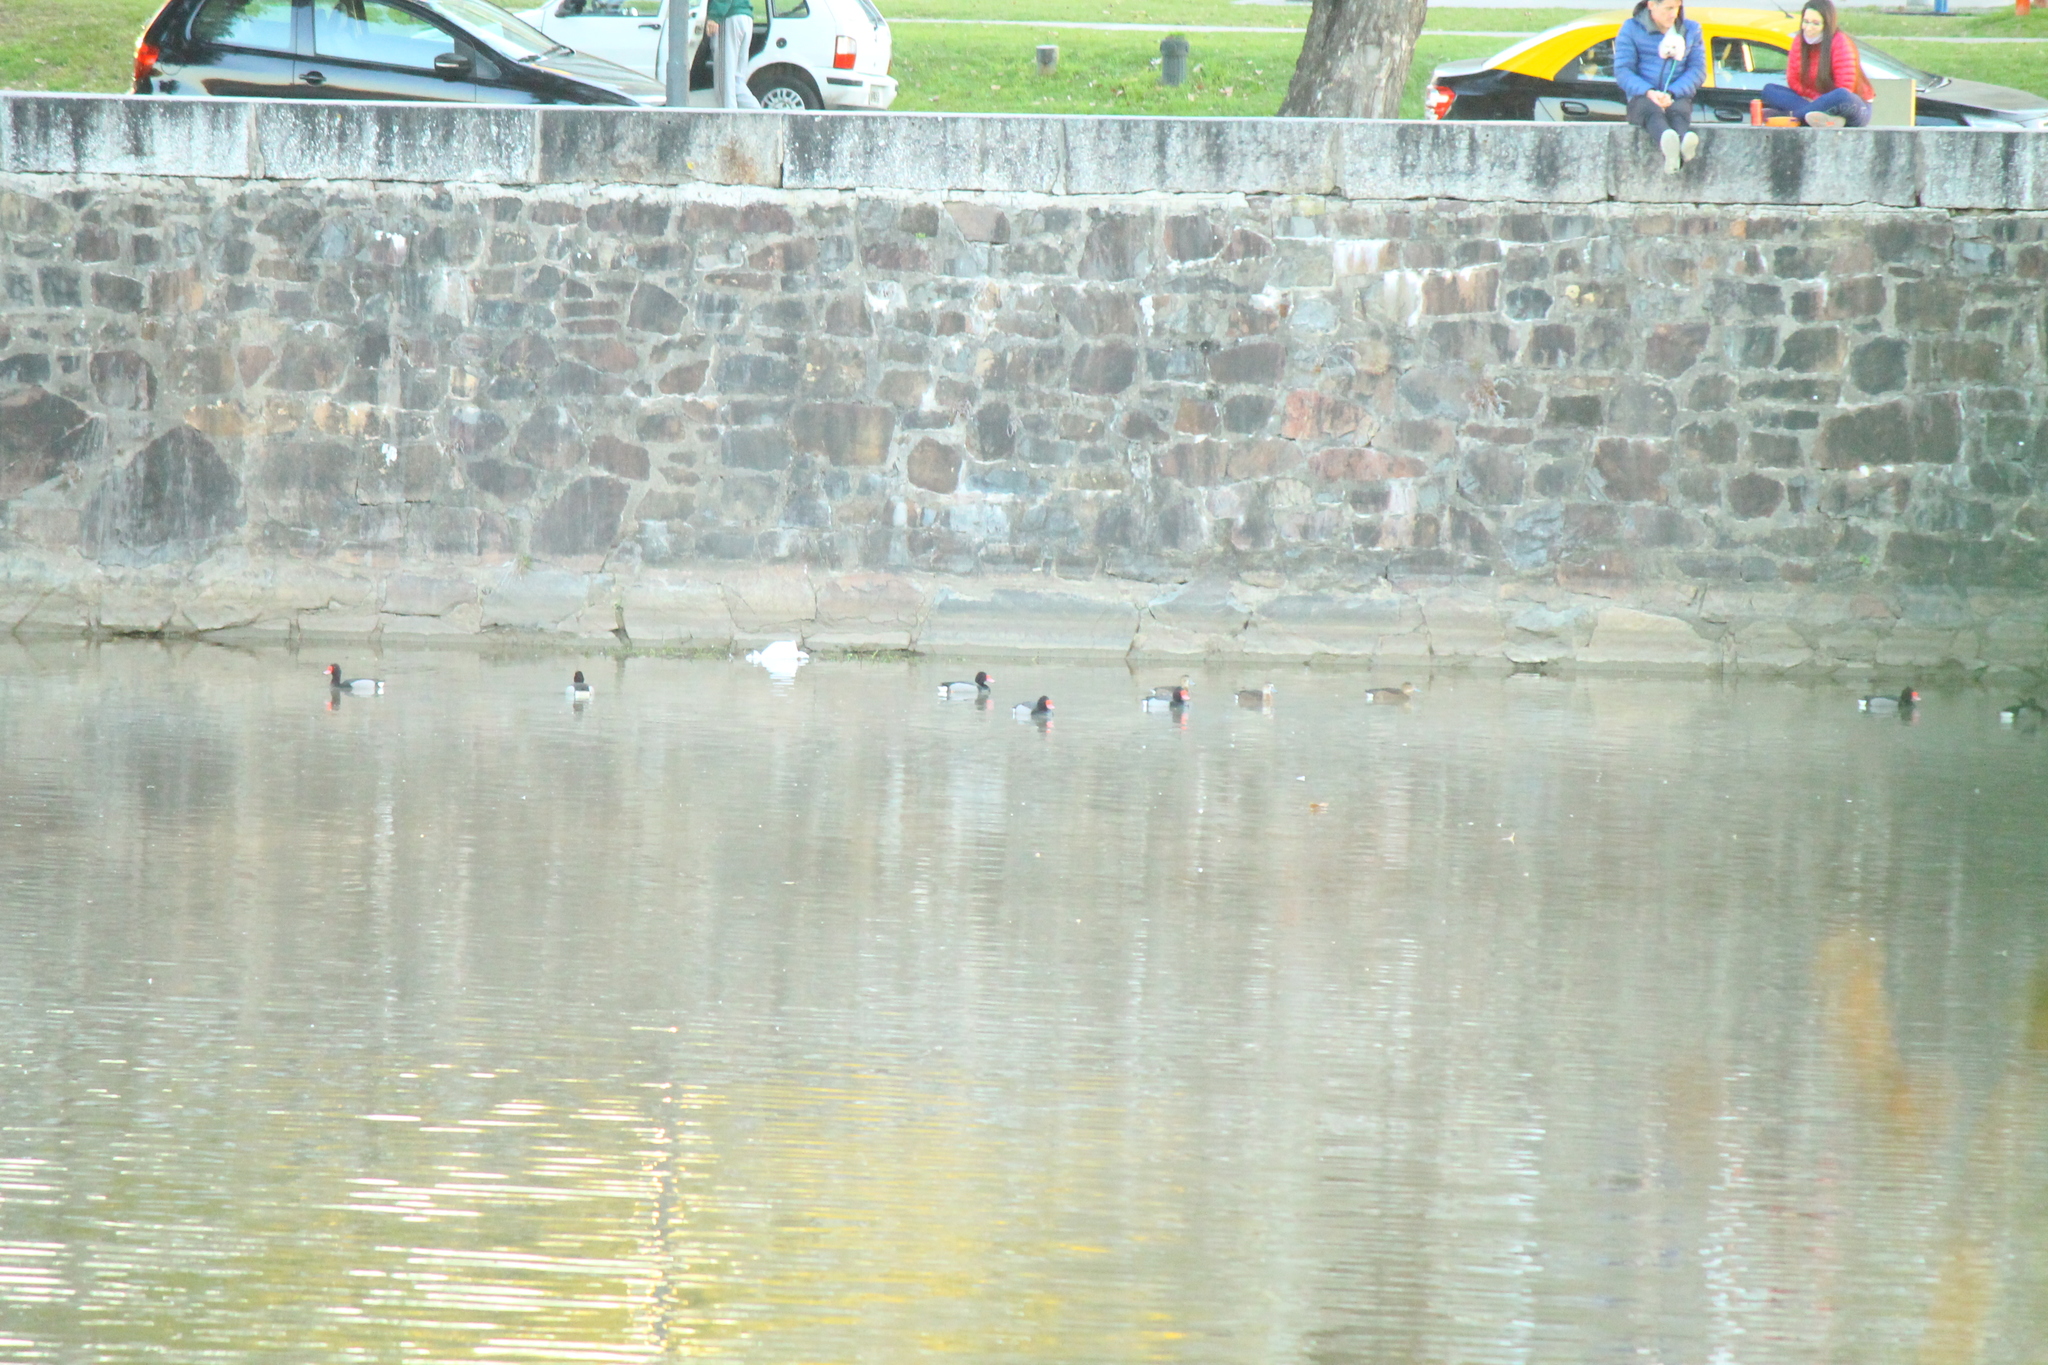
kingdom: Animalia
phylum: Chordata
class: Aves
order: Anseriformes
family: Anatidae
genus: Netta
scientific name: Netta peposaca
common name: Rosy-billed pochard
